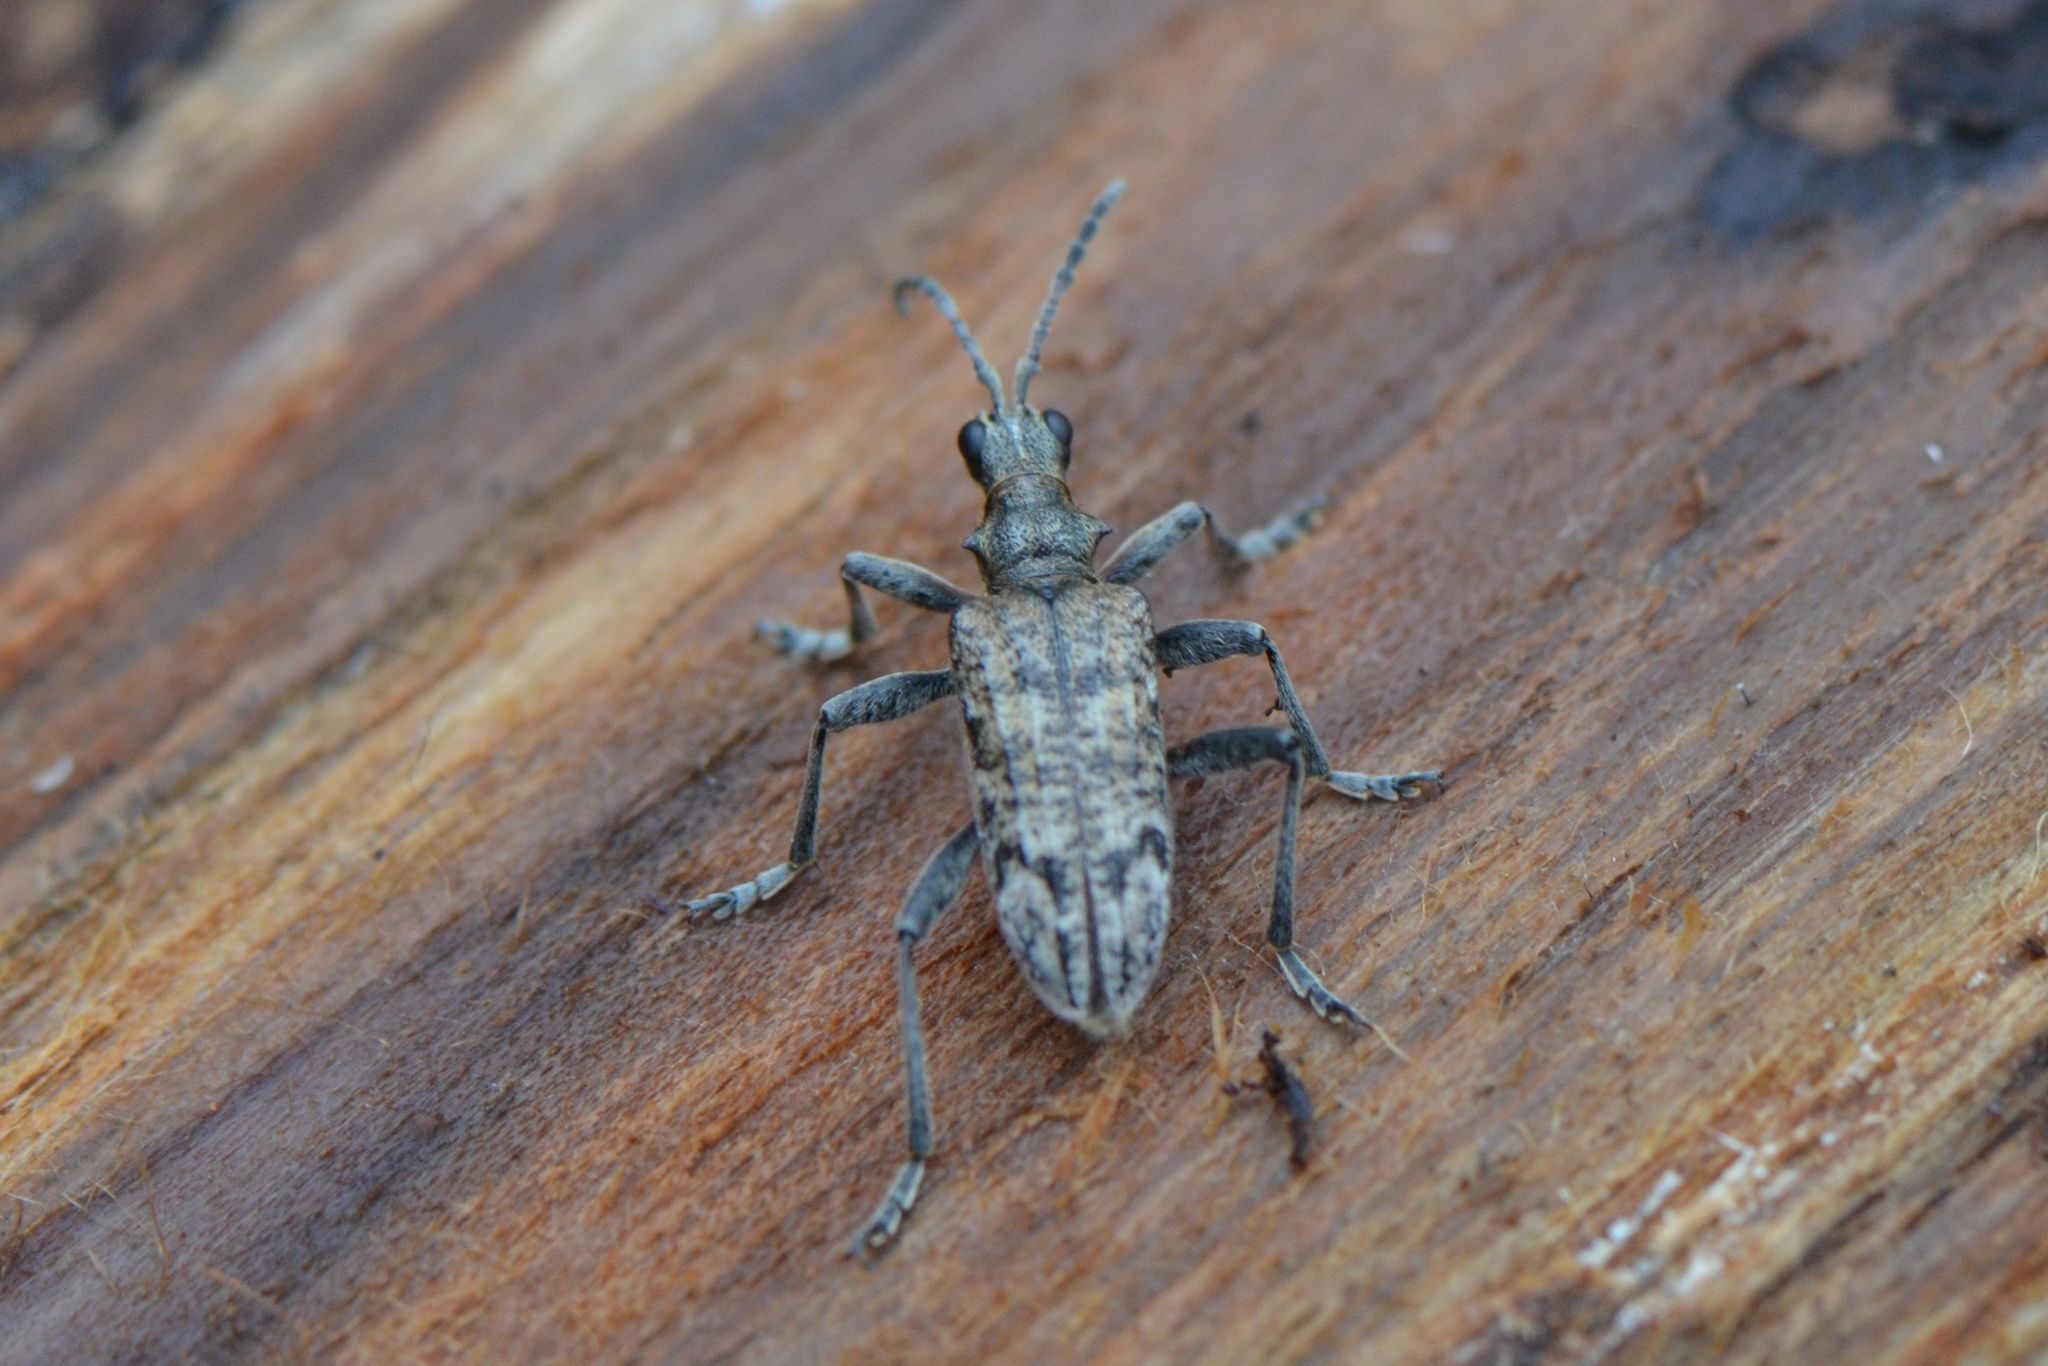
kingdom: Animalia
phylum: Arthropoda
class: Insecta
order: Coleoptera
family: Cerambycidae
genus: Rhagium
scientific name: Rhagium inquisitor
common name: Ribbed pine borer
